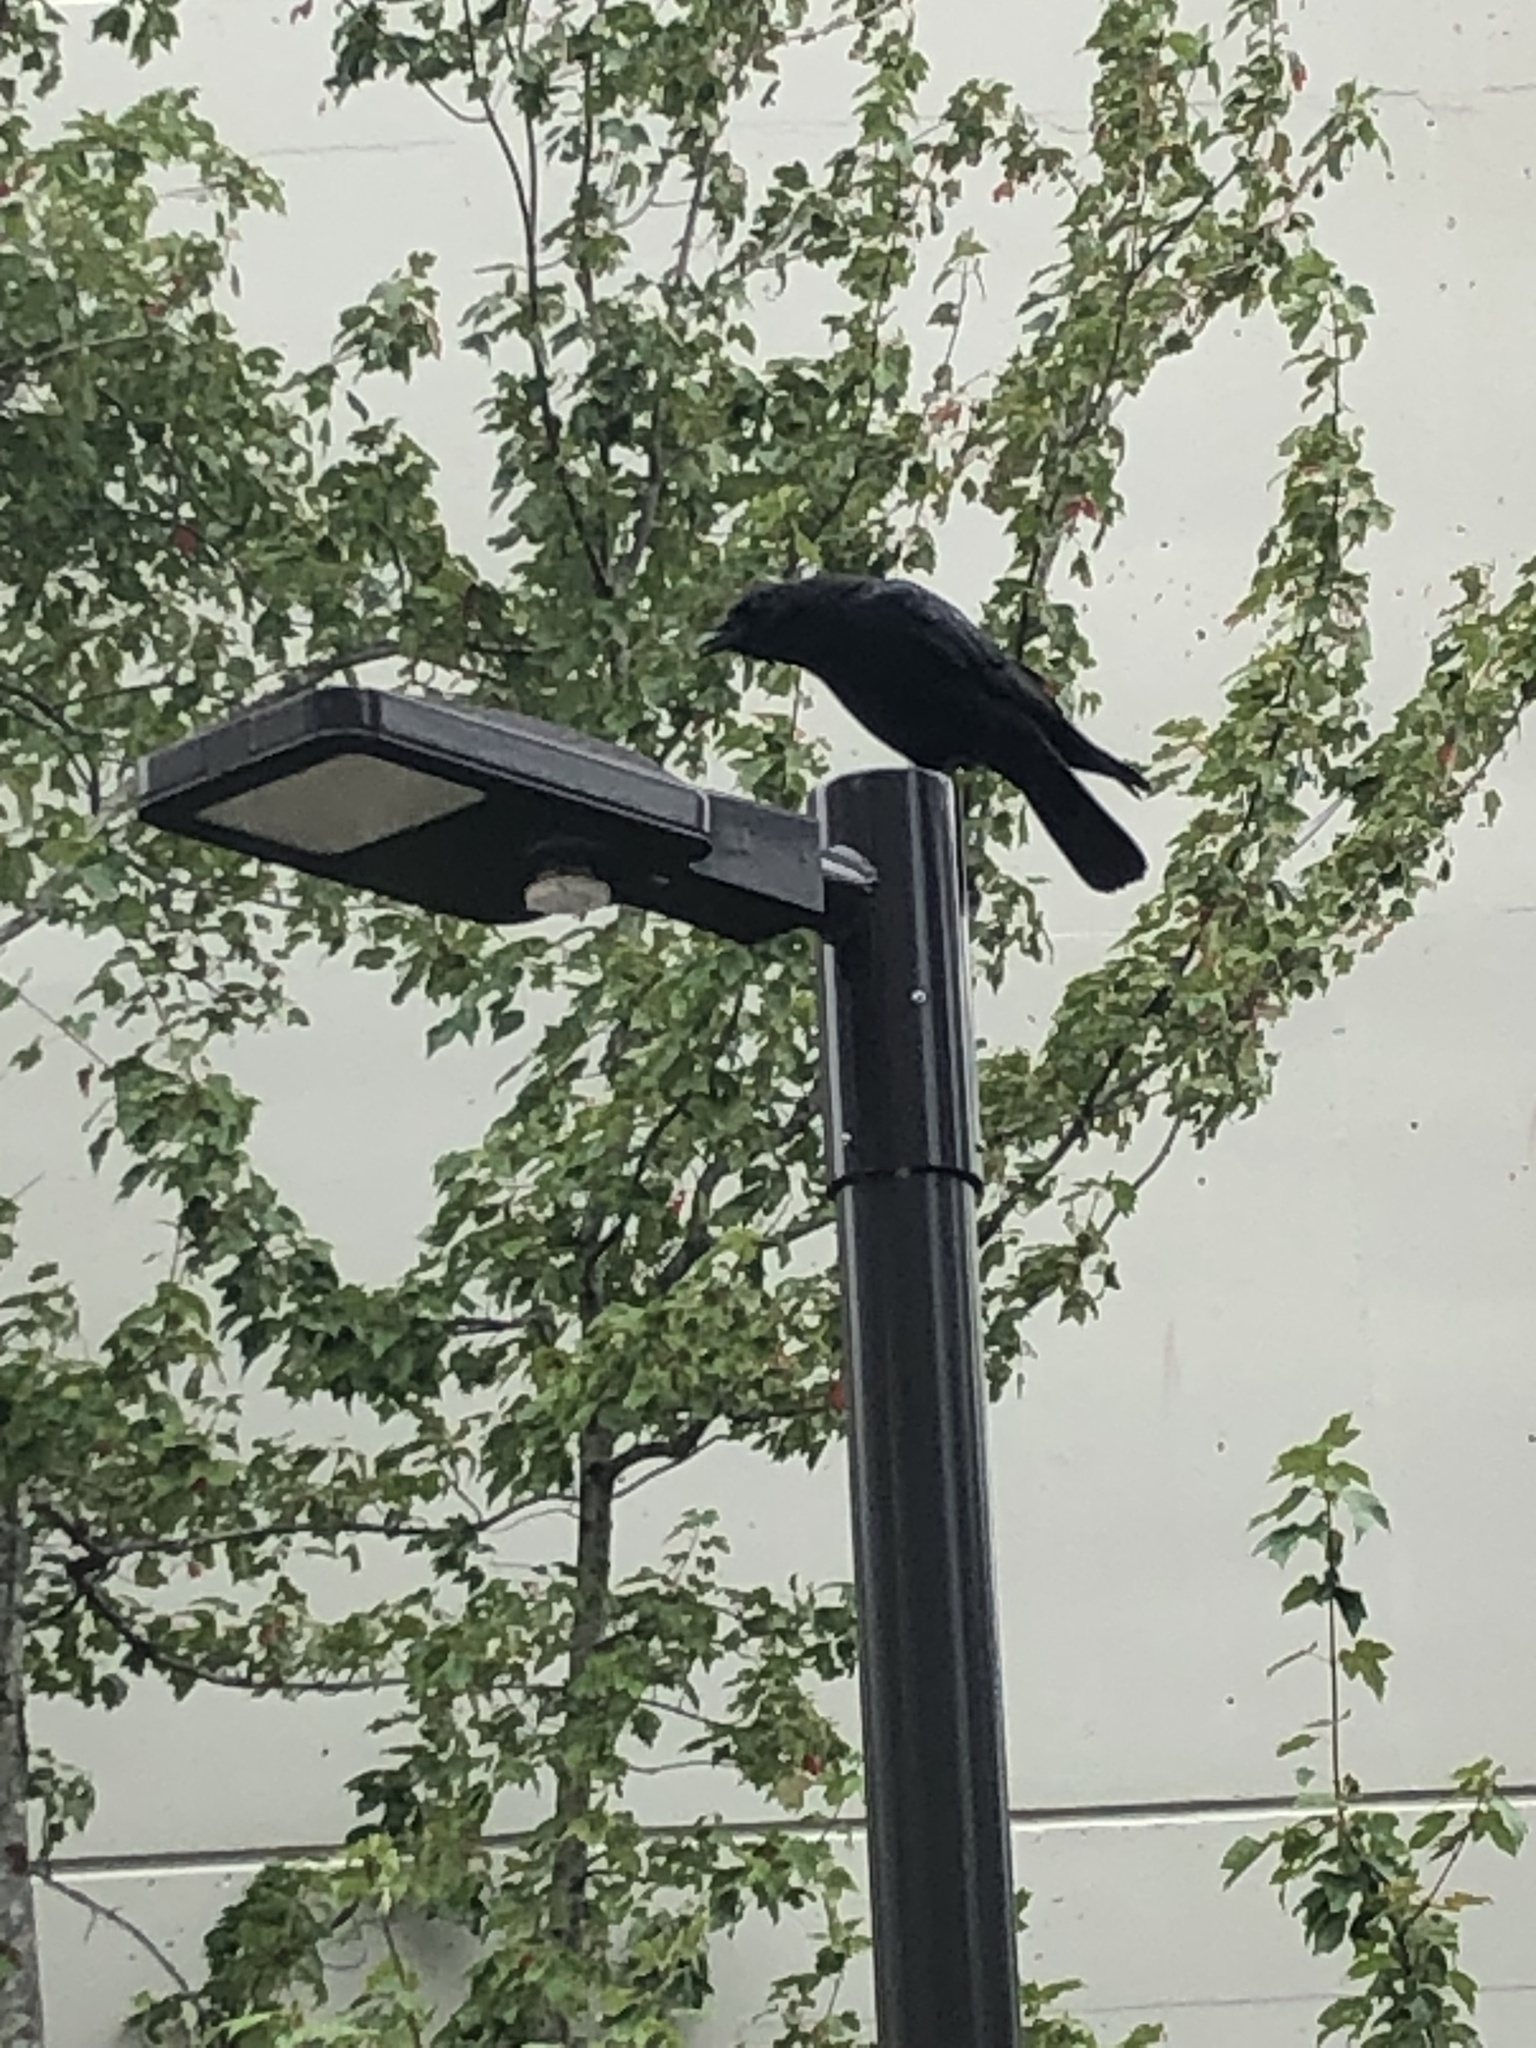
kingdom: Animalia
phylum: Chordata
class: Aves
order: Passeriformes
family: Corvidae
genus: Corvus
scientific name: Corvus brachyrhynchos
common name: American crow
